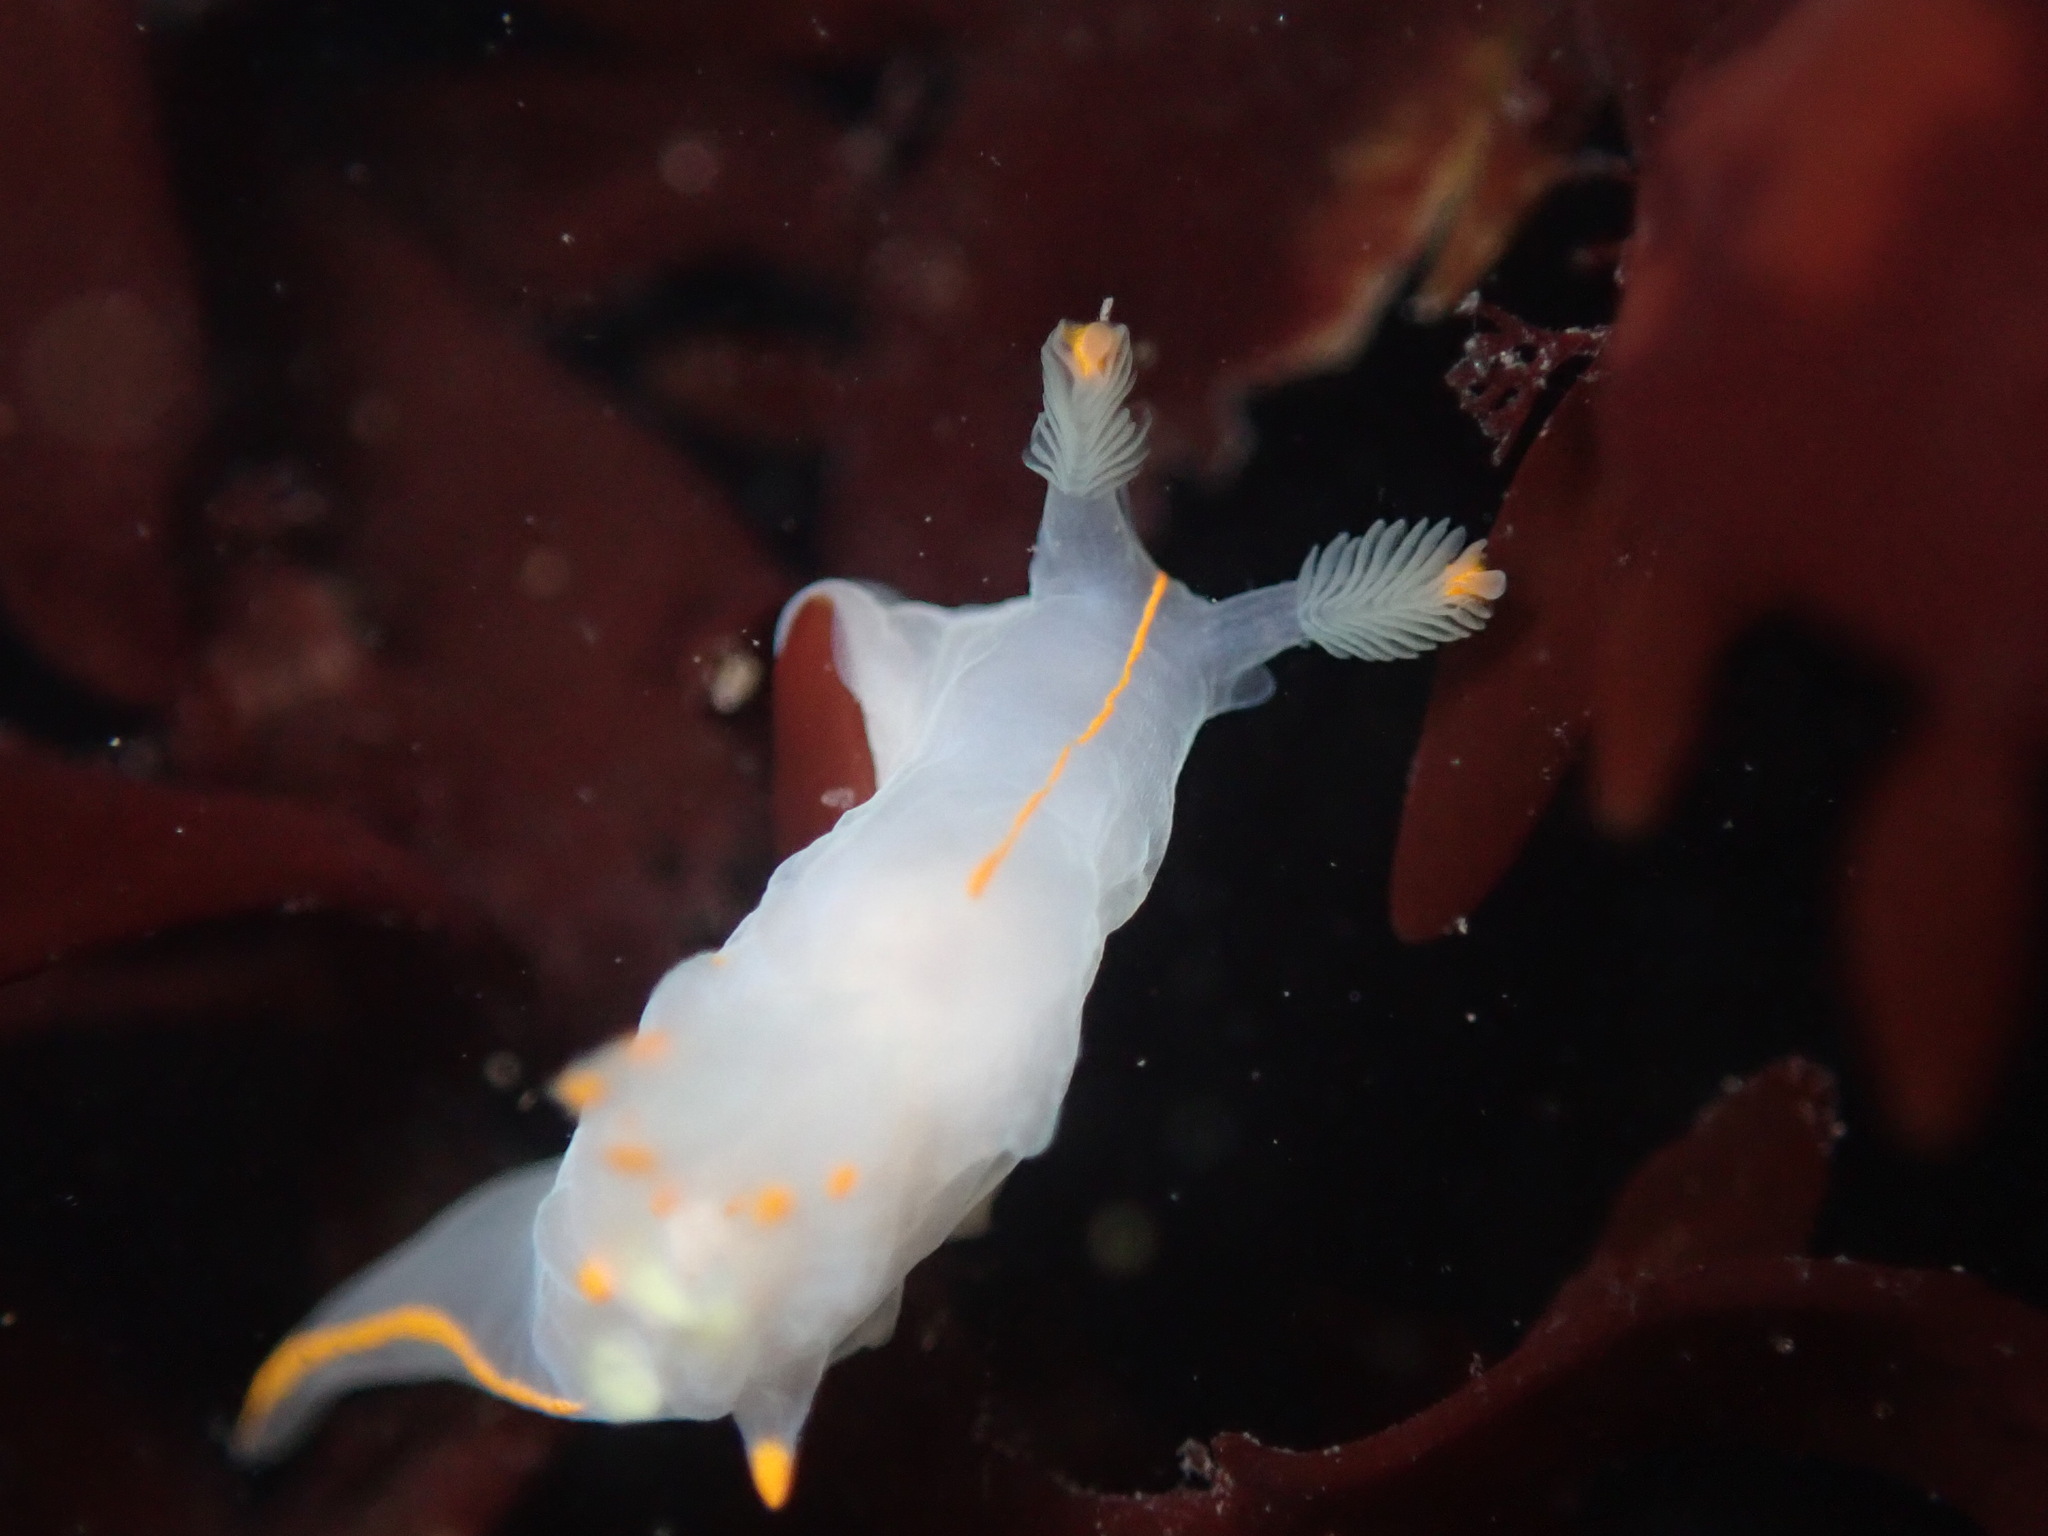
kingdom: Animalia
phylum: Mollusca
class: Gastropoda
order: Nudibranchia
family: Goniodorididae
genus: Ancula
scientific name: Ancula pacifica
